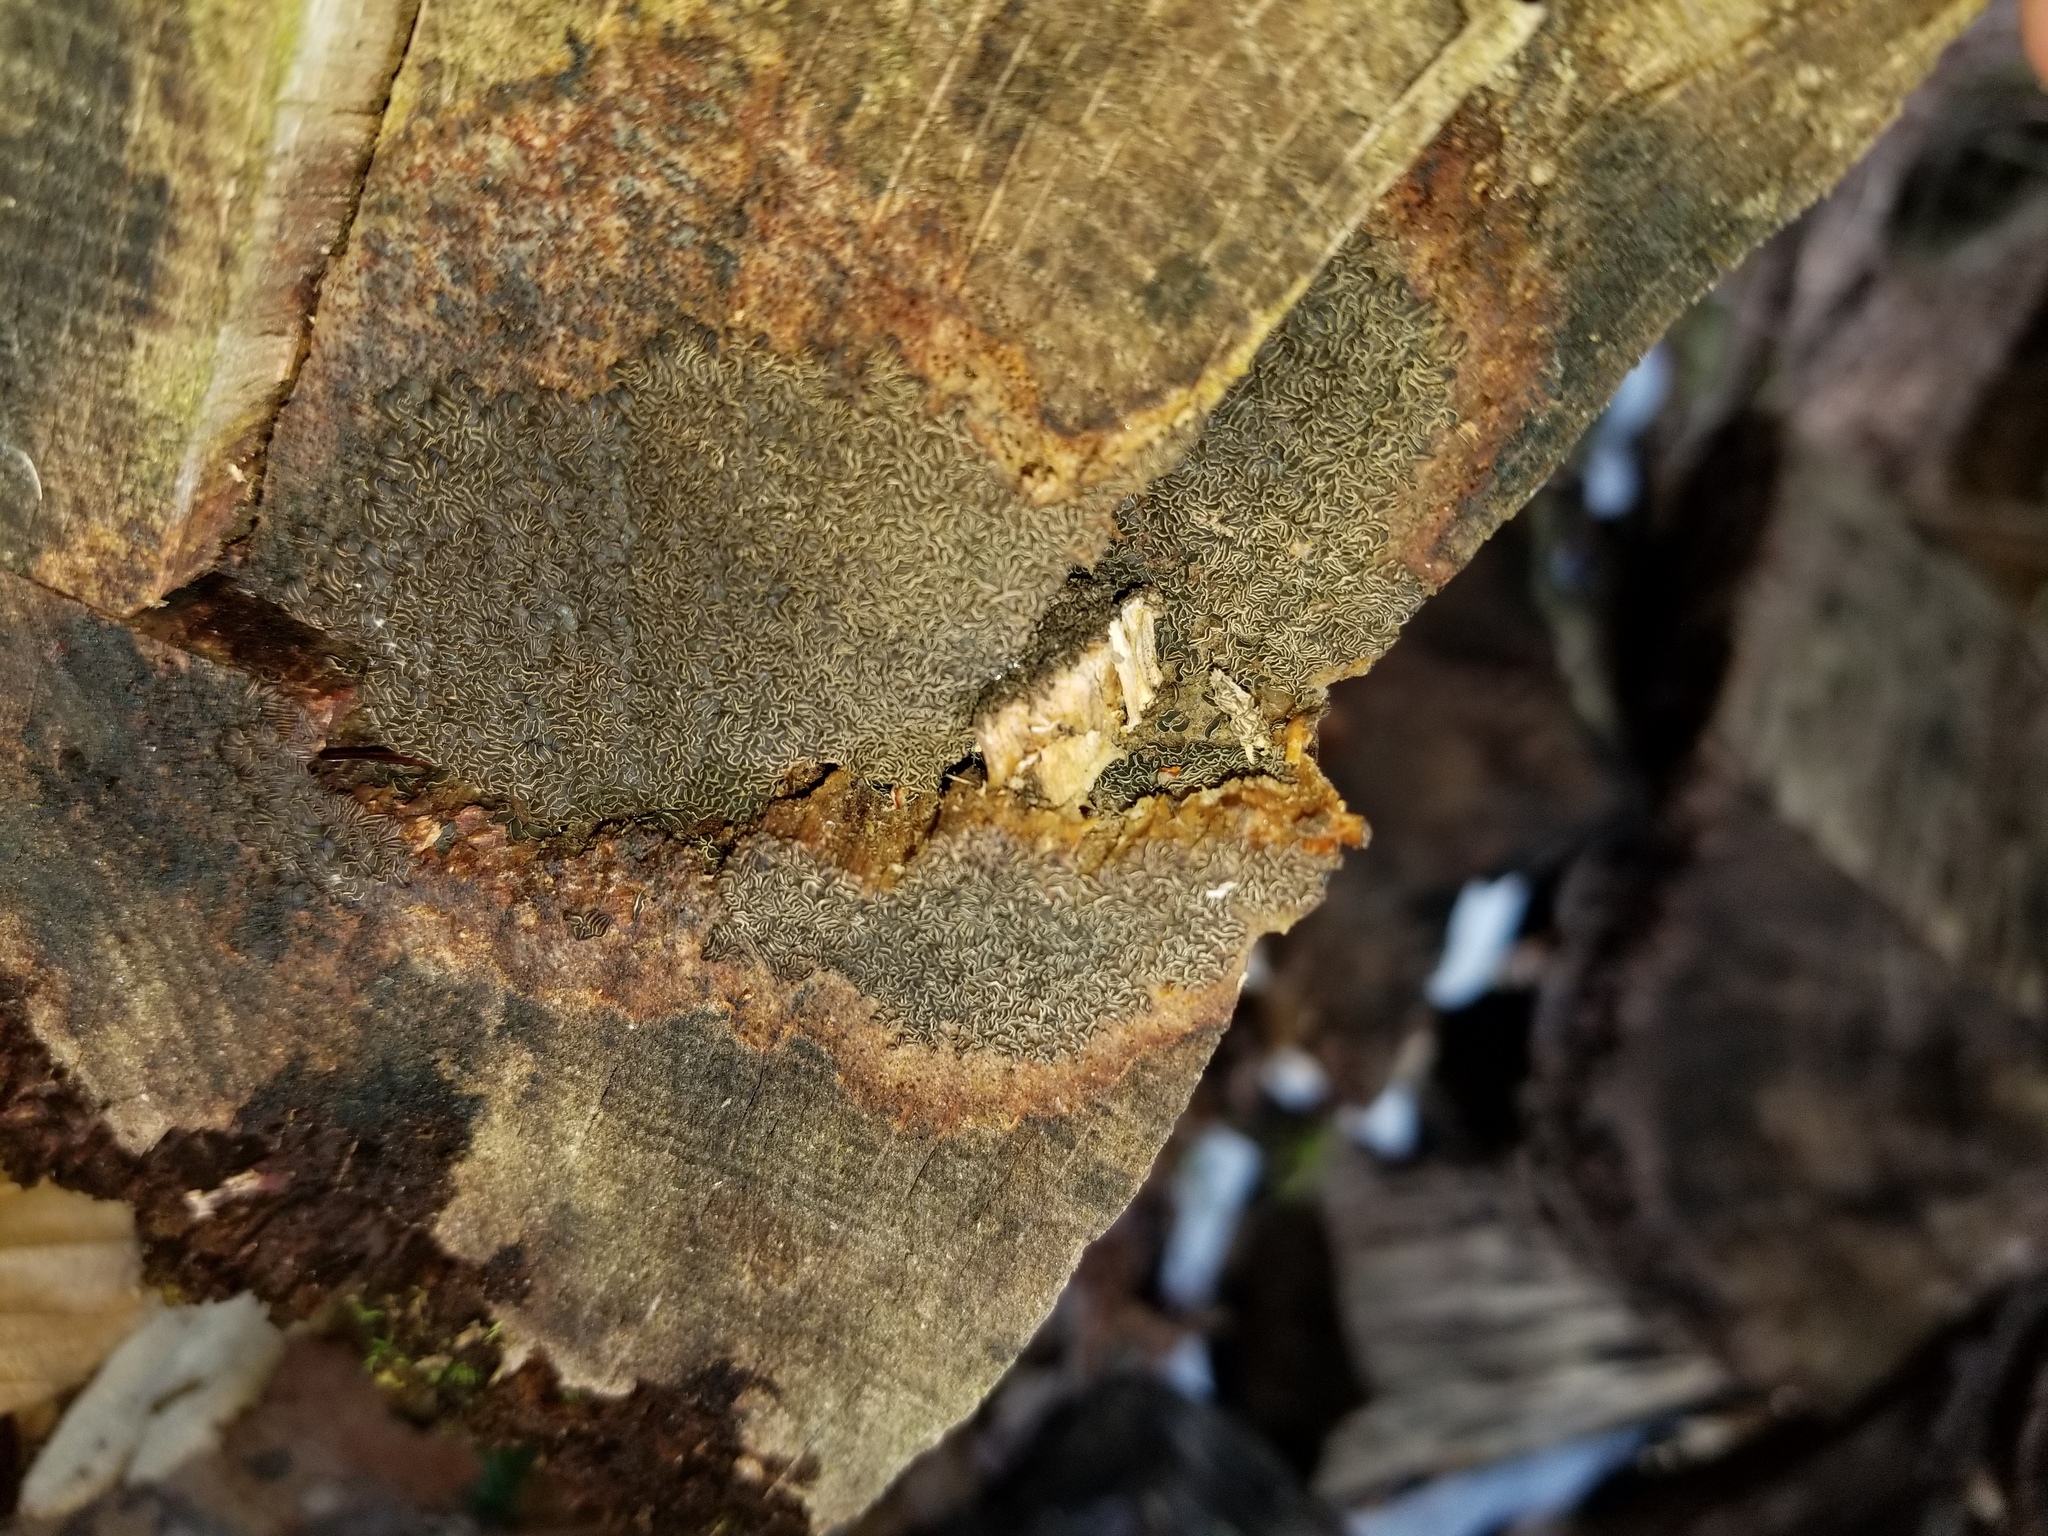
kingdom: Fungi
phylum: Ascomycota
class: Leotiomycetes
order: Helotiales
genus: Angelina
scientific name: Angelina rufescens
